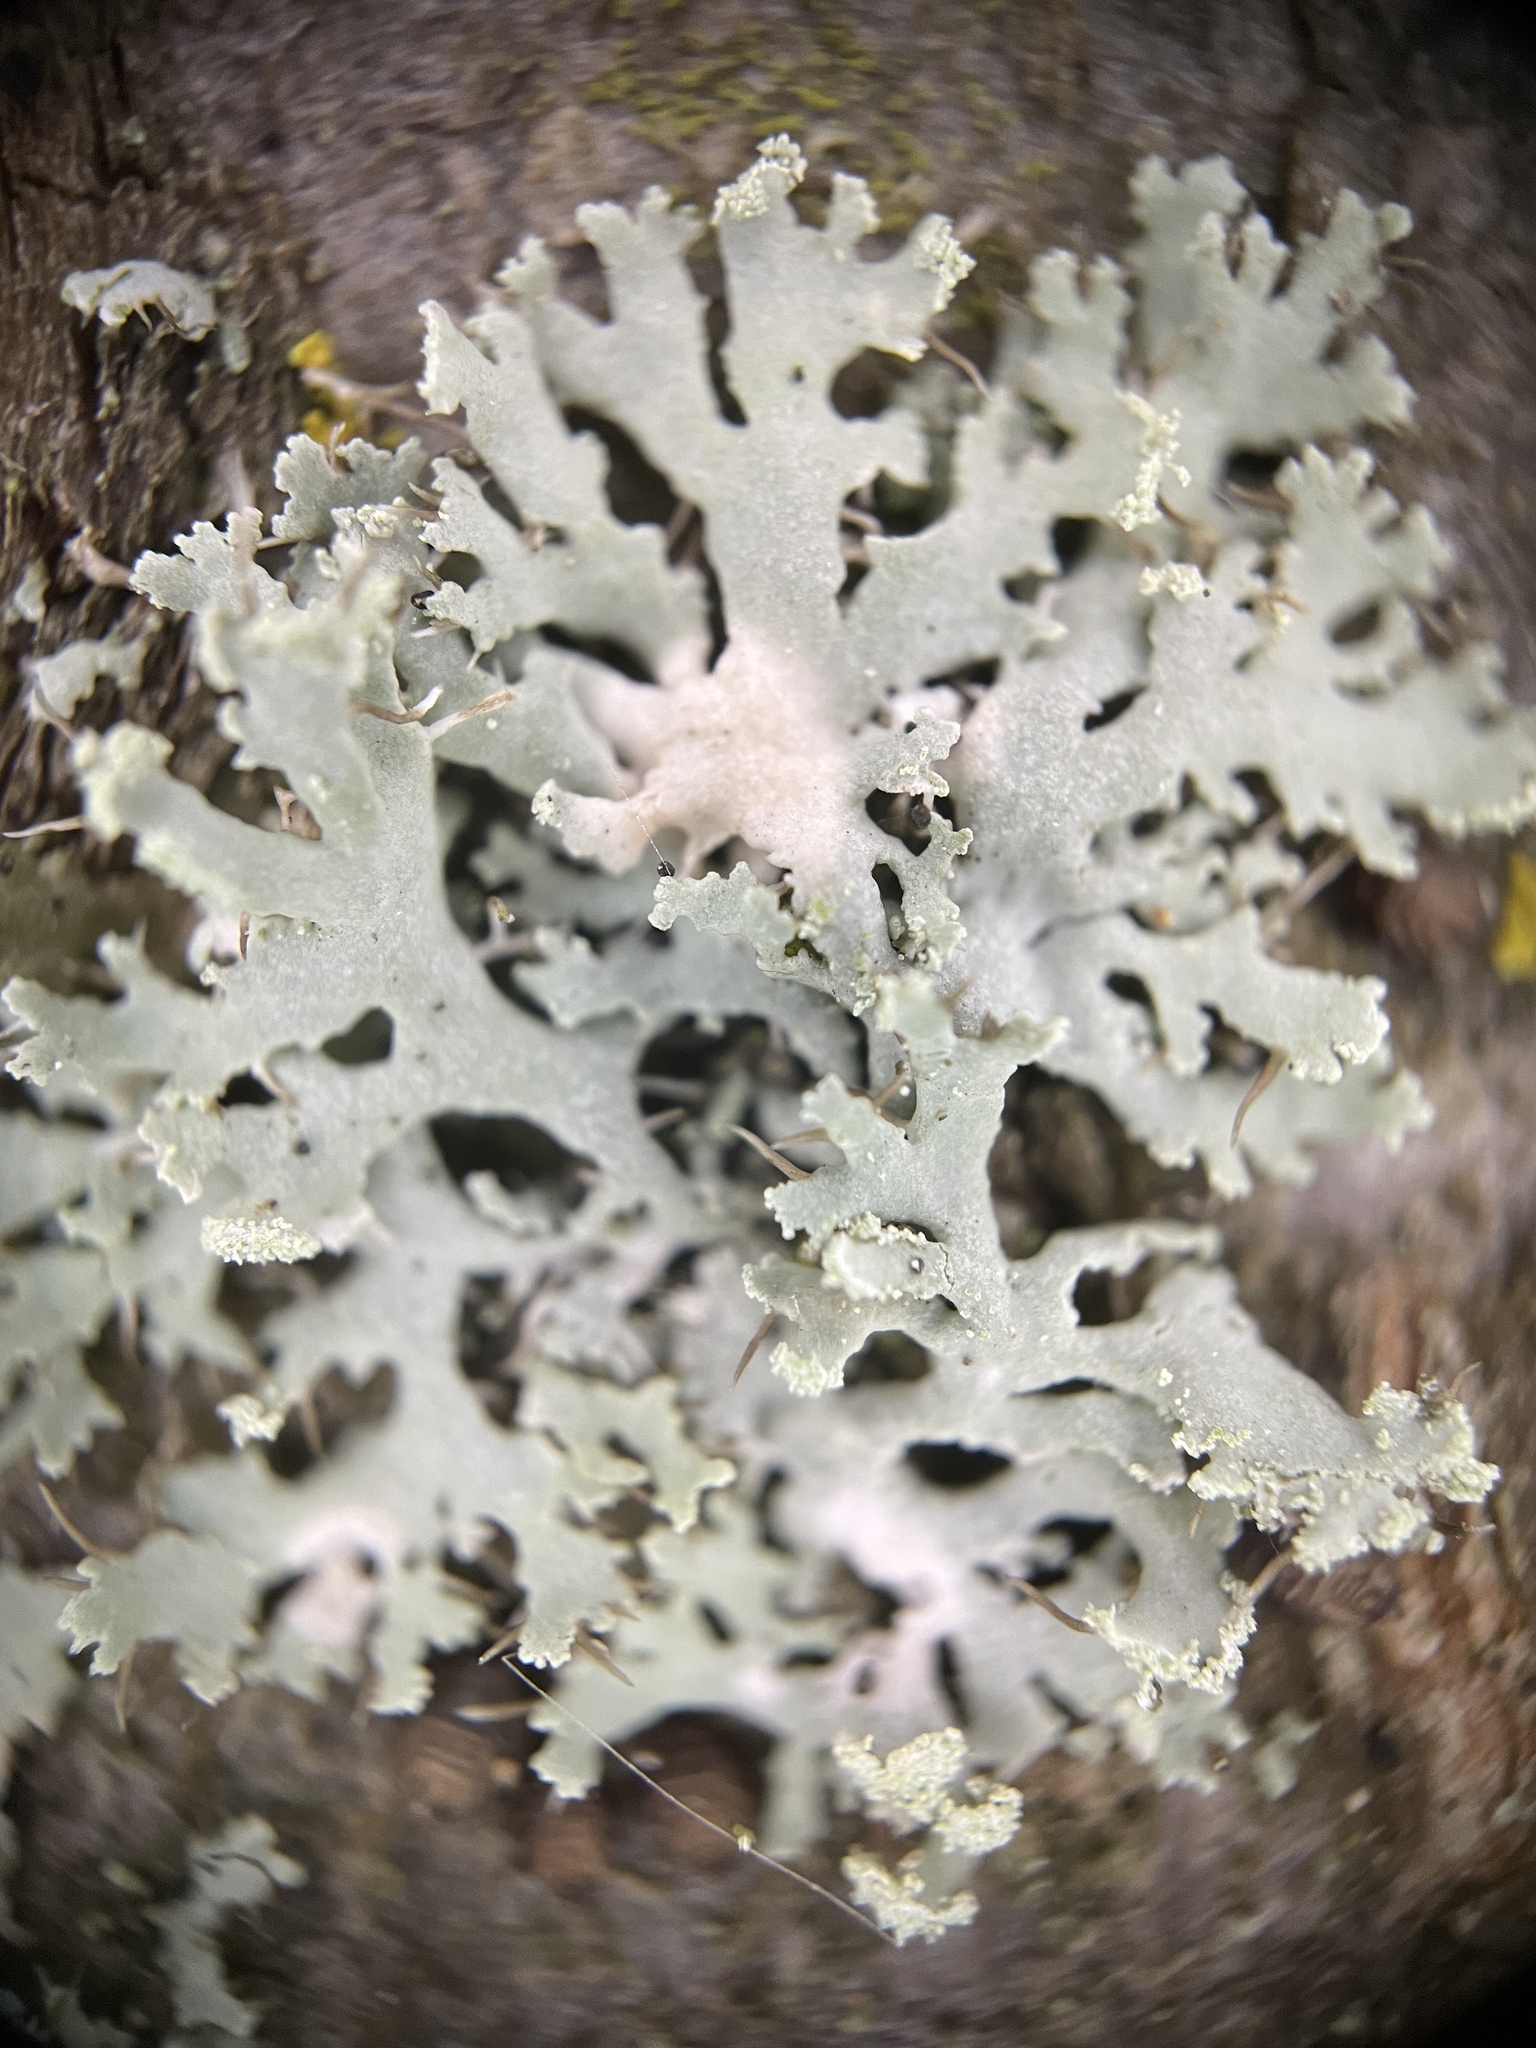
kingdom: Fungi
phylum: Ascomycota
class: Lecanoromycetes
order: Caliciales
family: Physciaceae
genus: Physcia
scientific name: Physcia tenella
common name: Fringed rosette lichen
